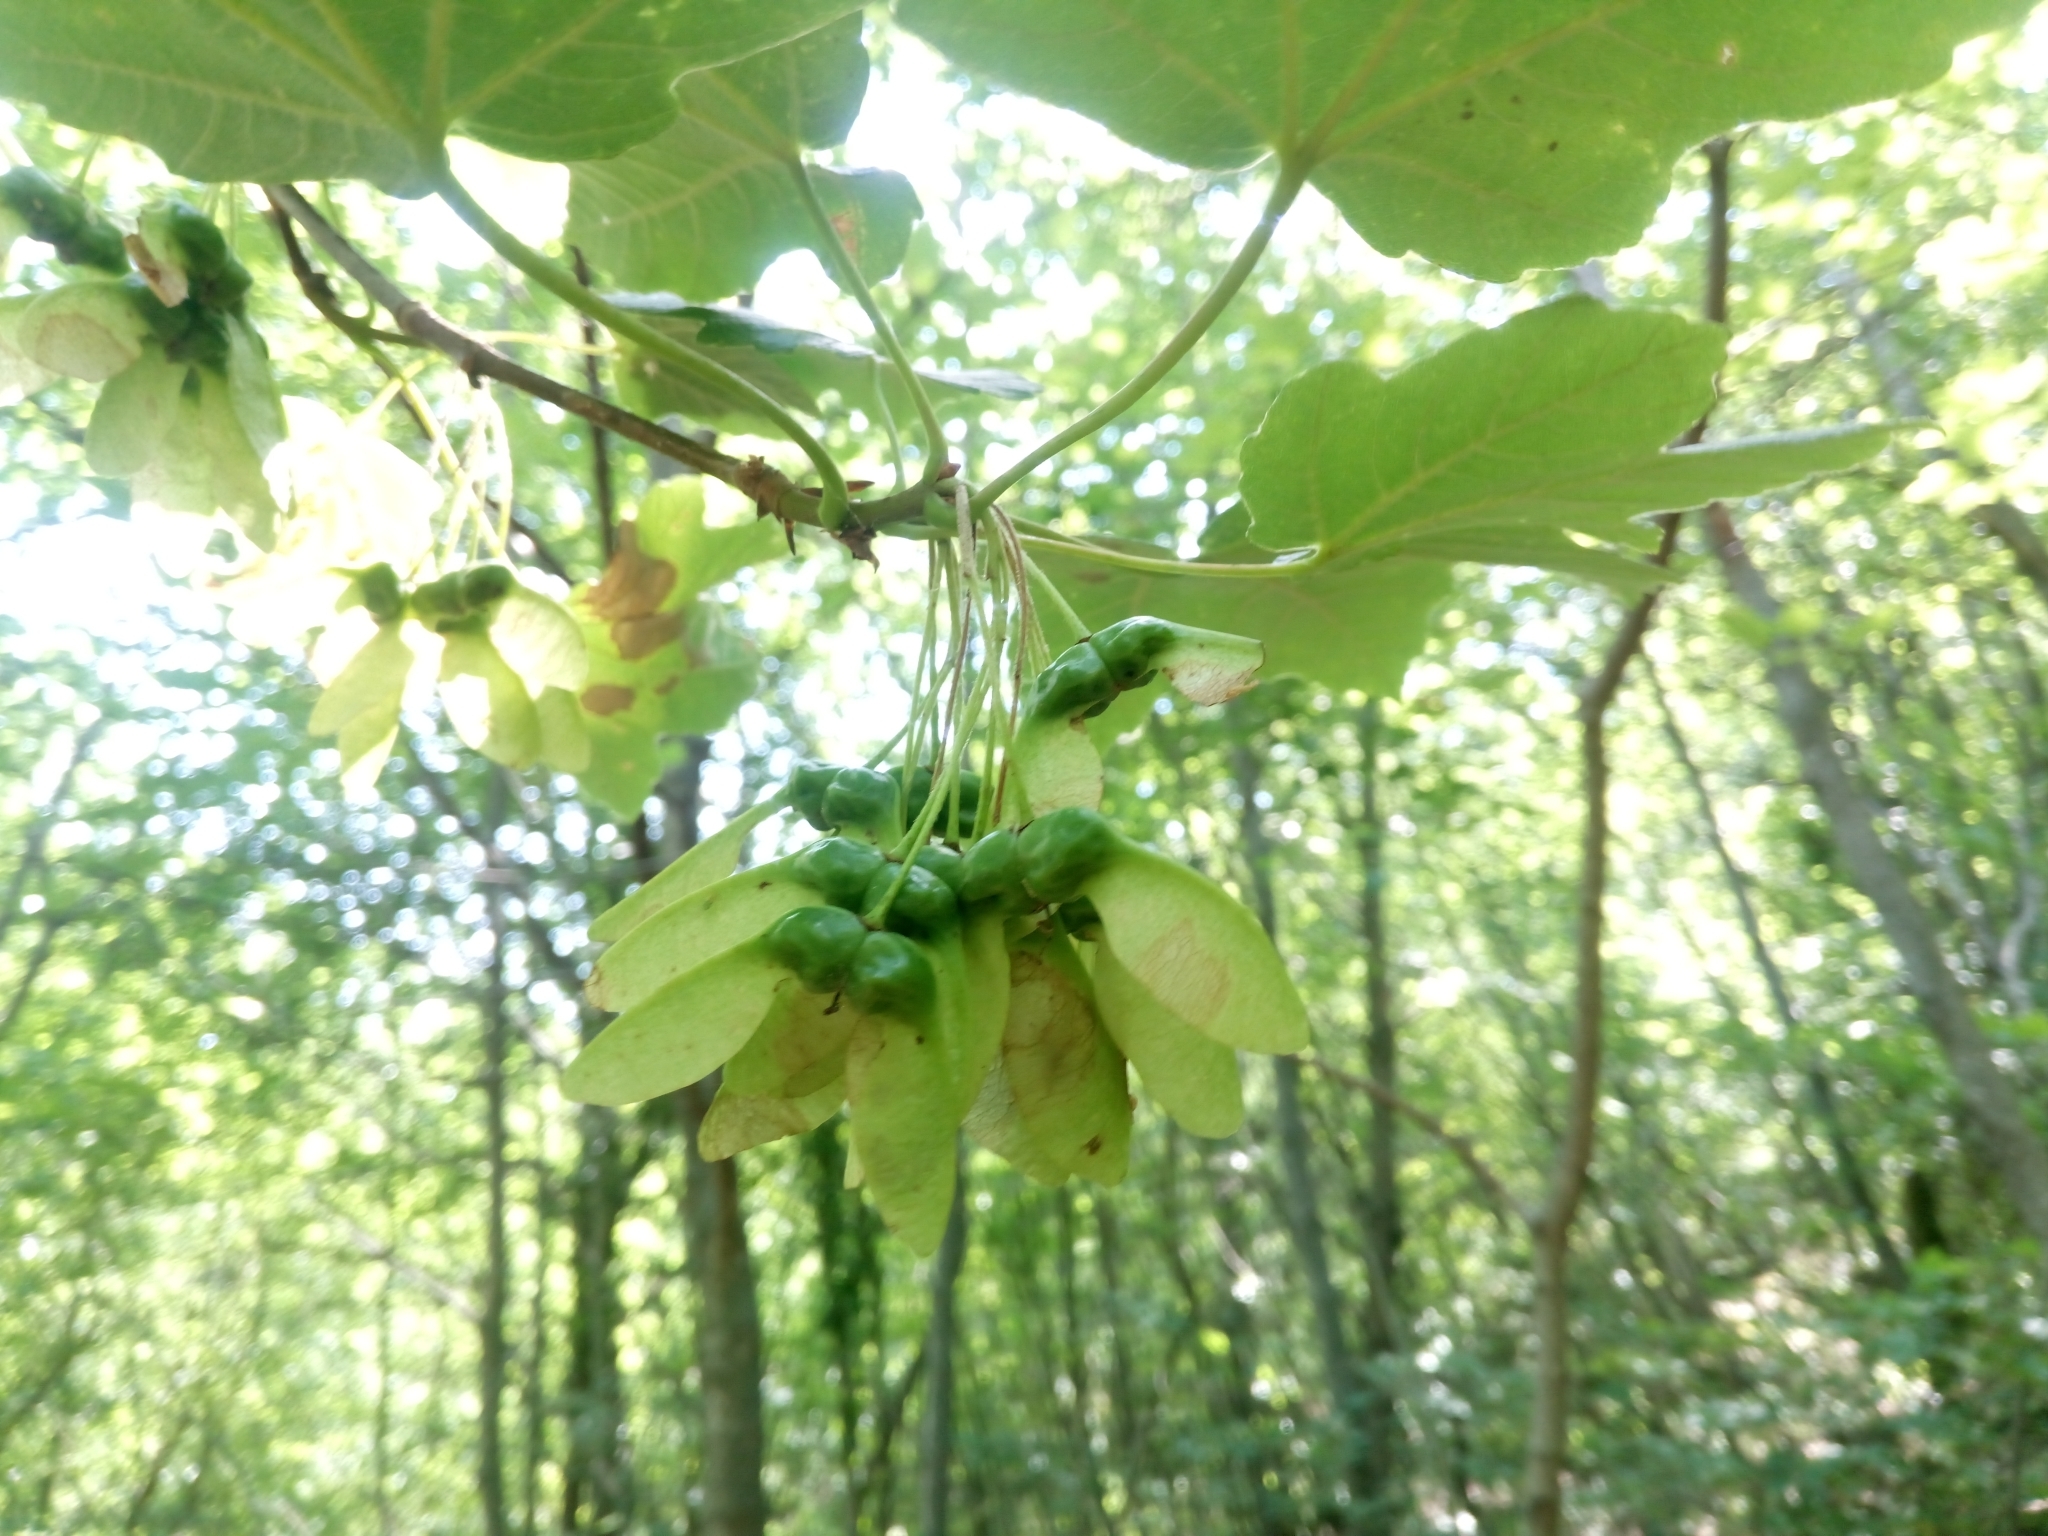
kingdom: Plantae
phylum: Tracheophyta
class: Magnoliopsida
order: Sapindales
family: Sapindaceae
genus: Acer
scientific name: Acer
